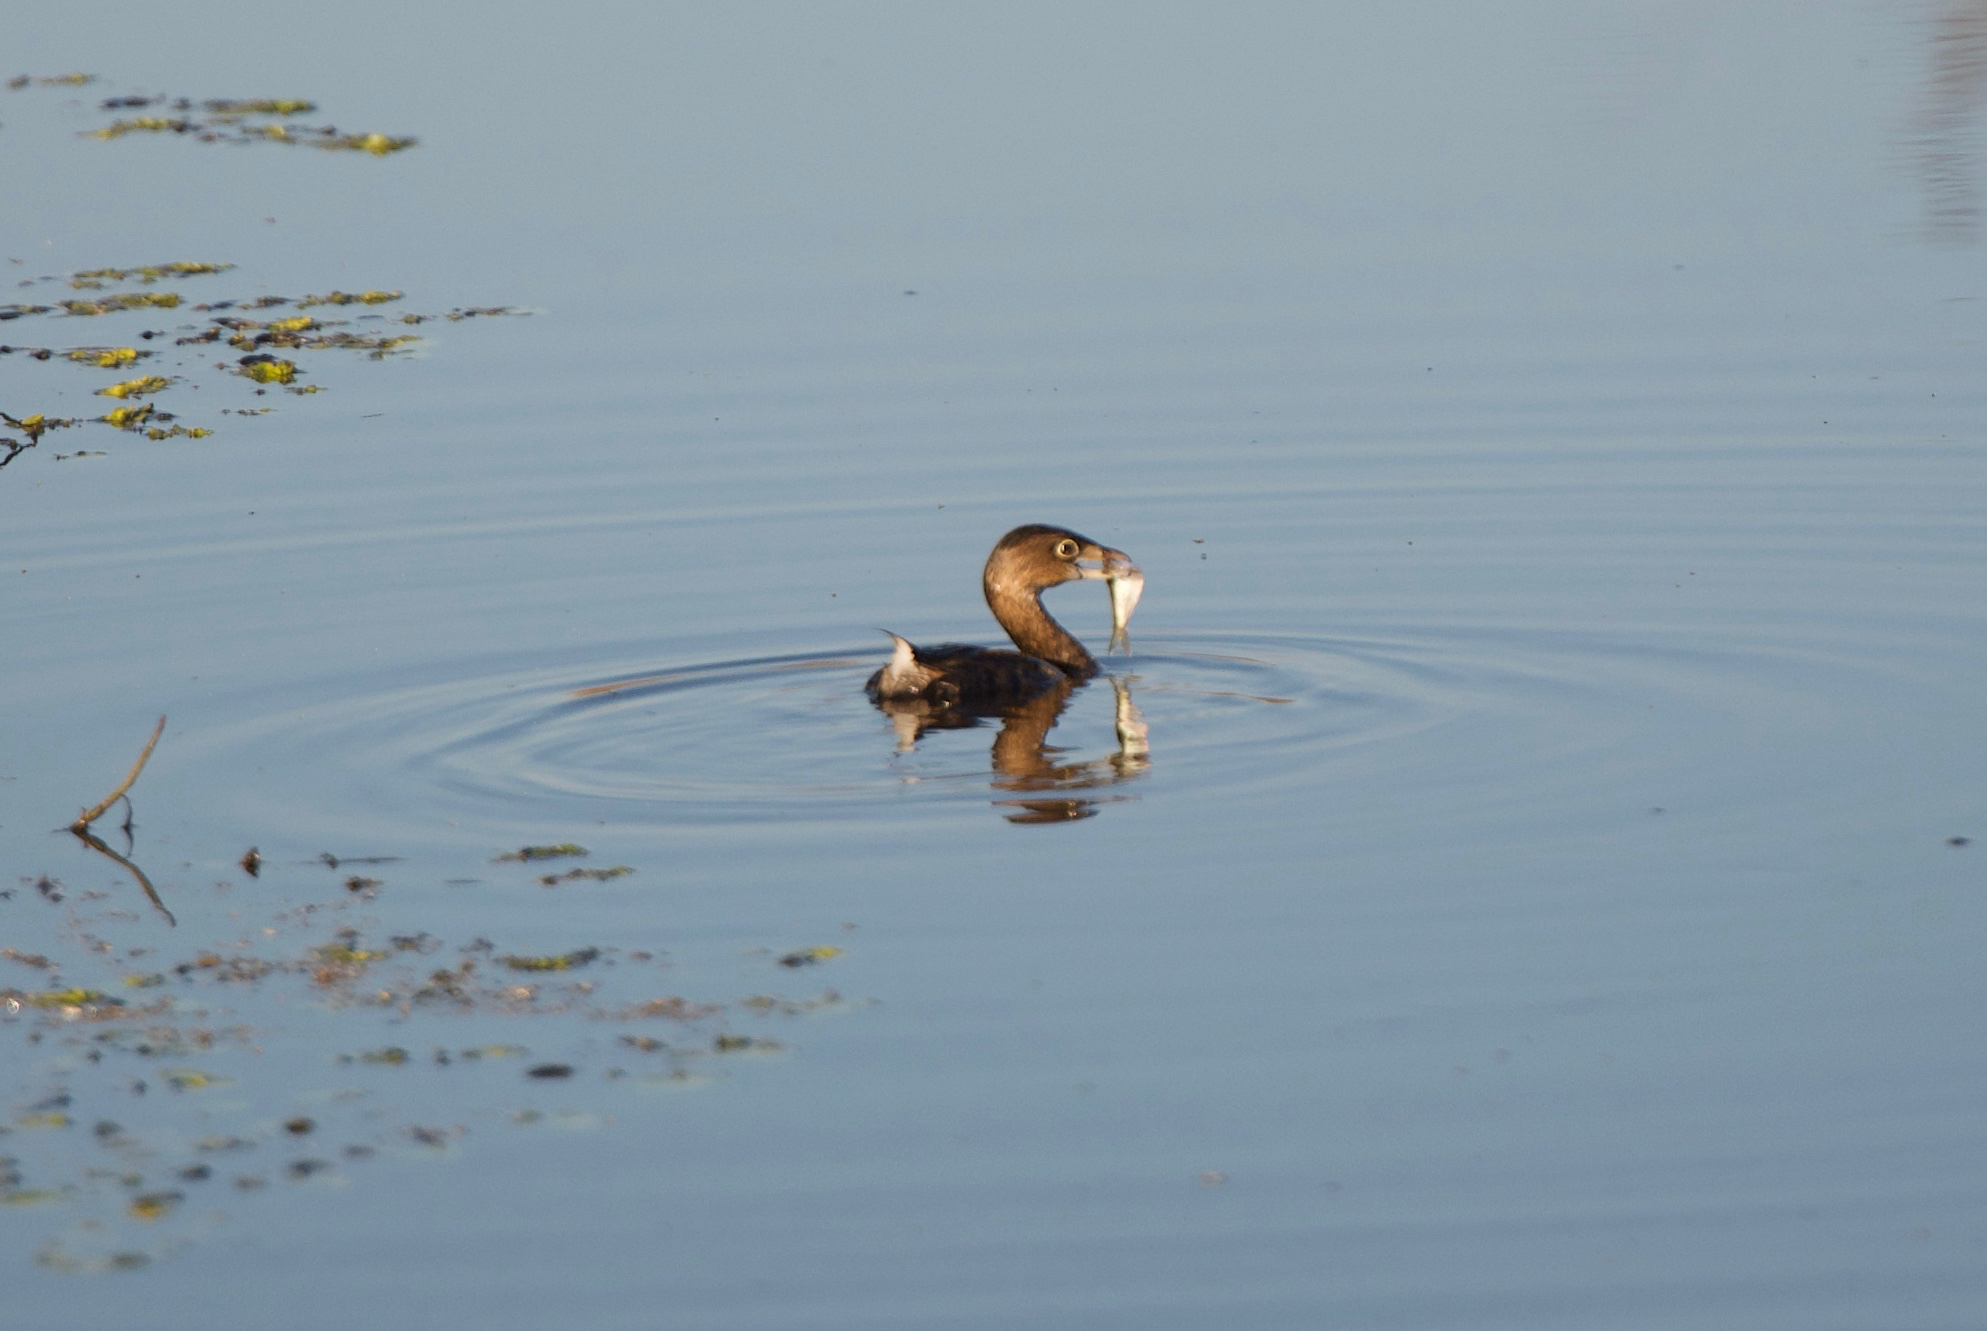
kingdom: Animalia
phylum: Chordata
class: Aves
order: Podicipediformes
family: Podicipedidae
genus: Podilymbus
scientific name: Podilymbus podiceps
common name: Pied-billed grebe
